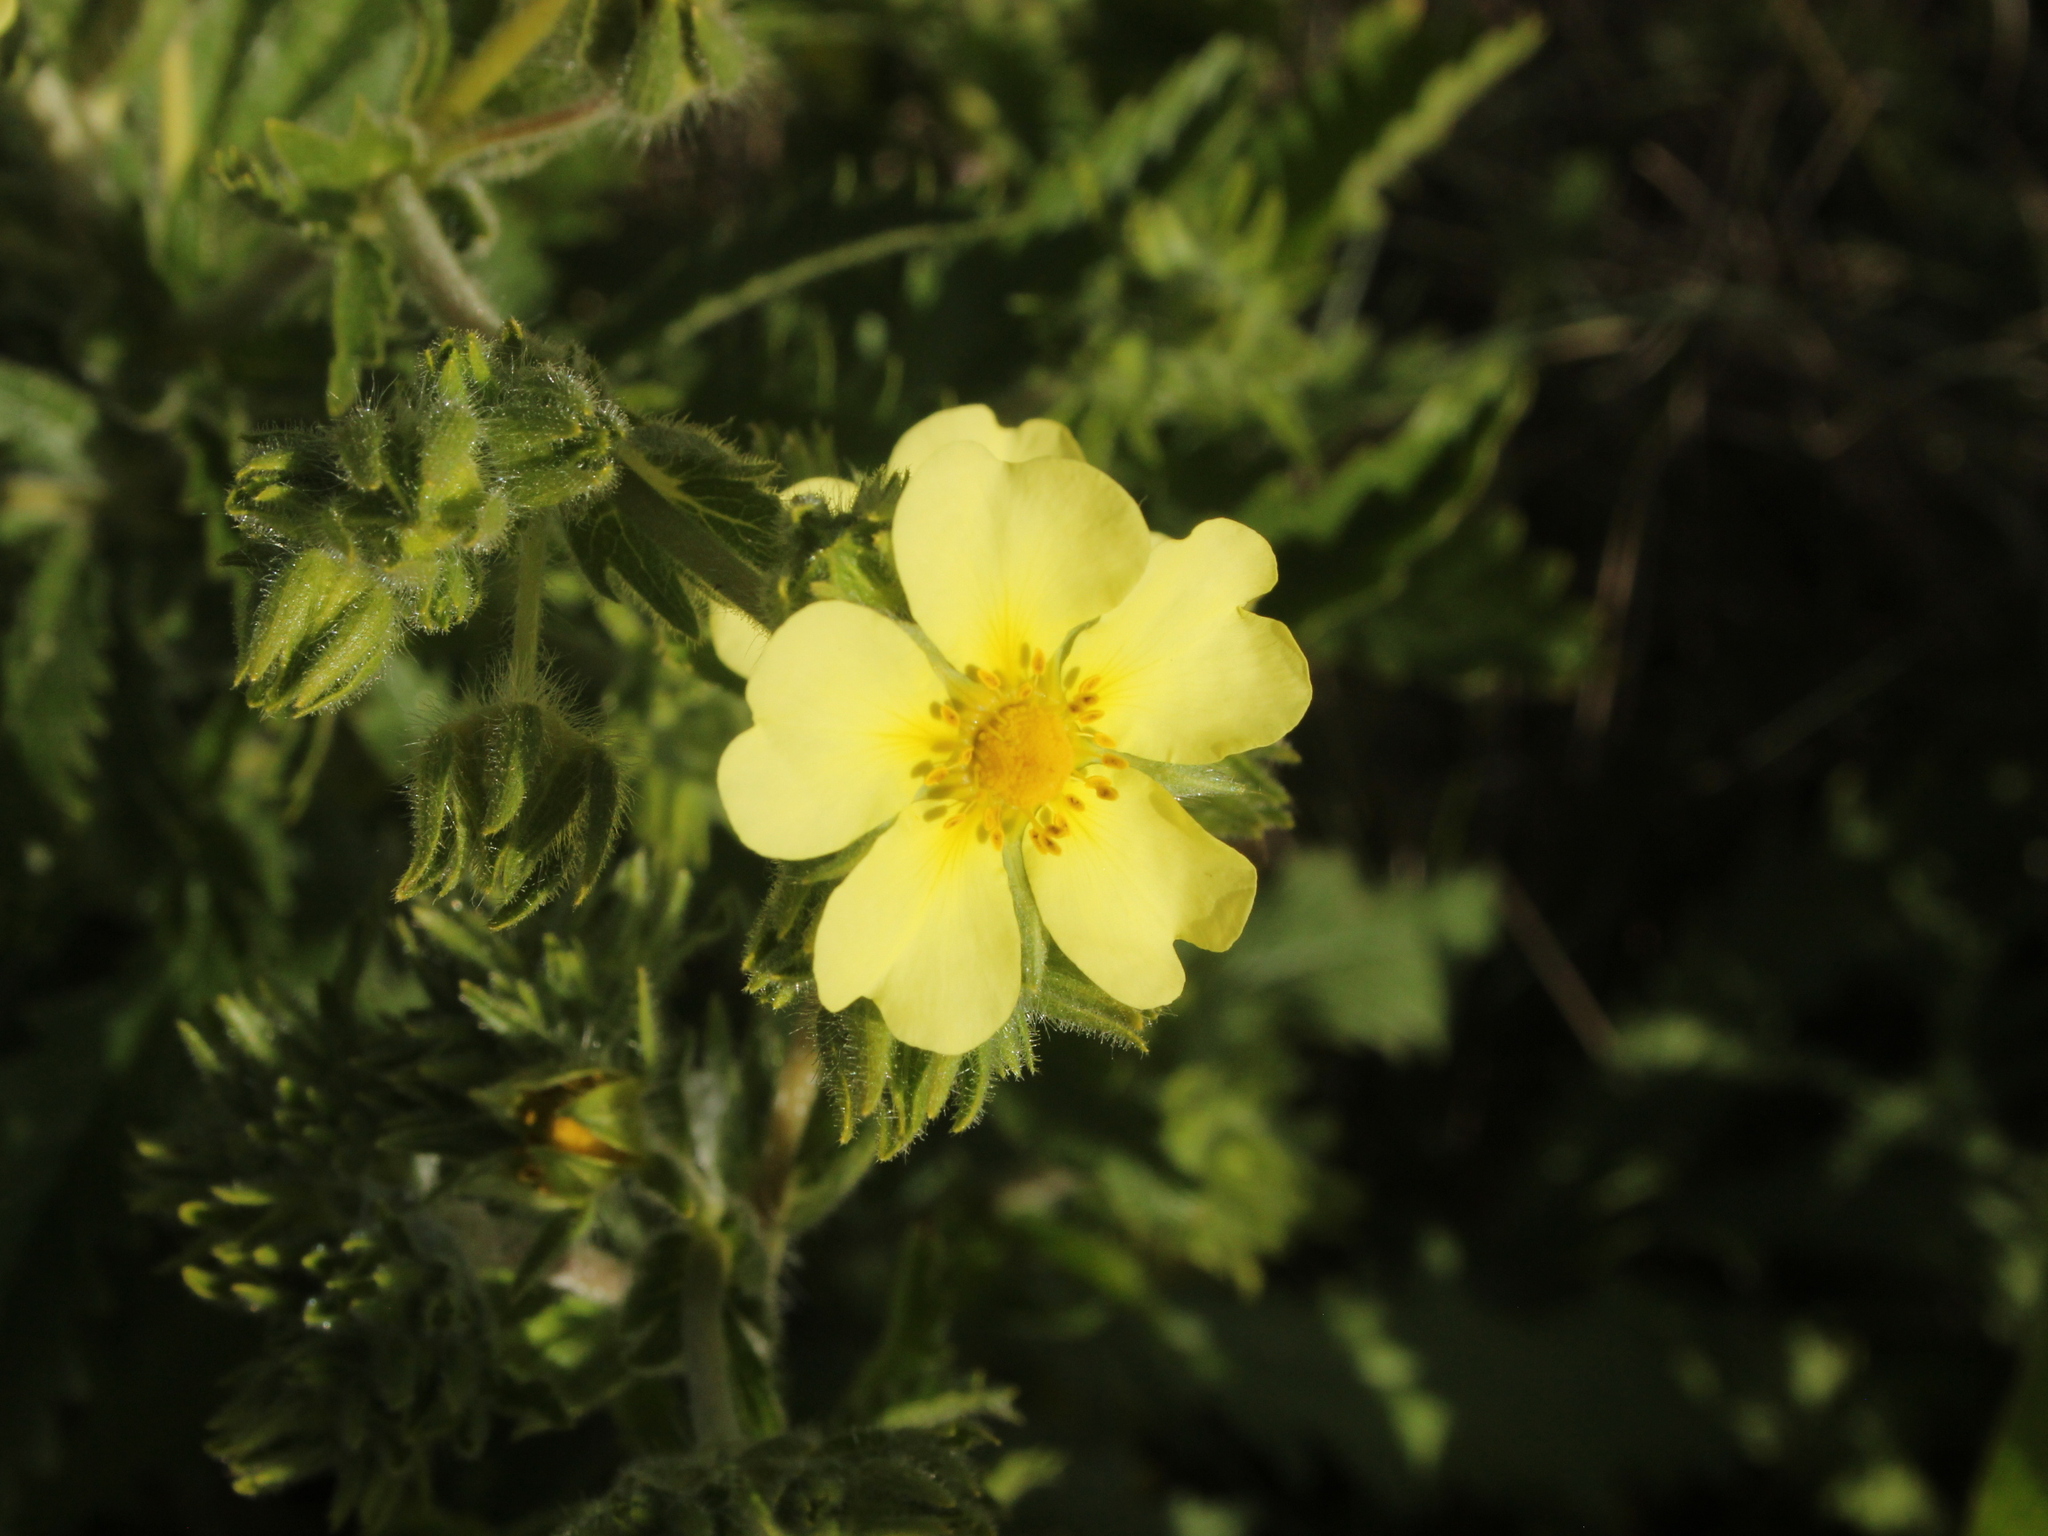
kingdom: Plantae
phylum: Tracheophyta
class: Magnoliopsida
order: Rosales
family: Rosaceae
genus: Potentilla
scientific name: Potentilla recta
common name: Sulphur cinquefoil
